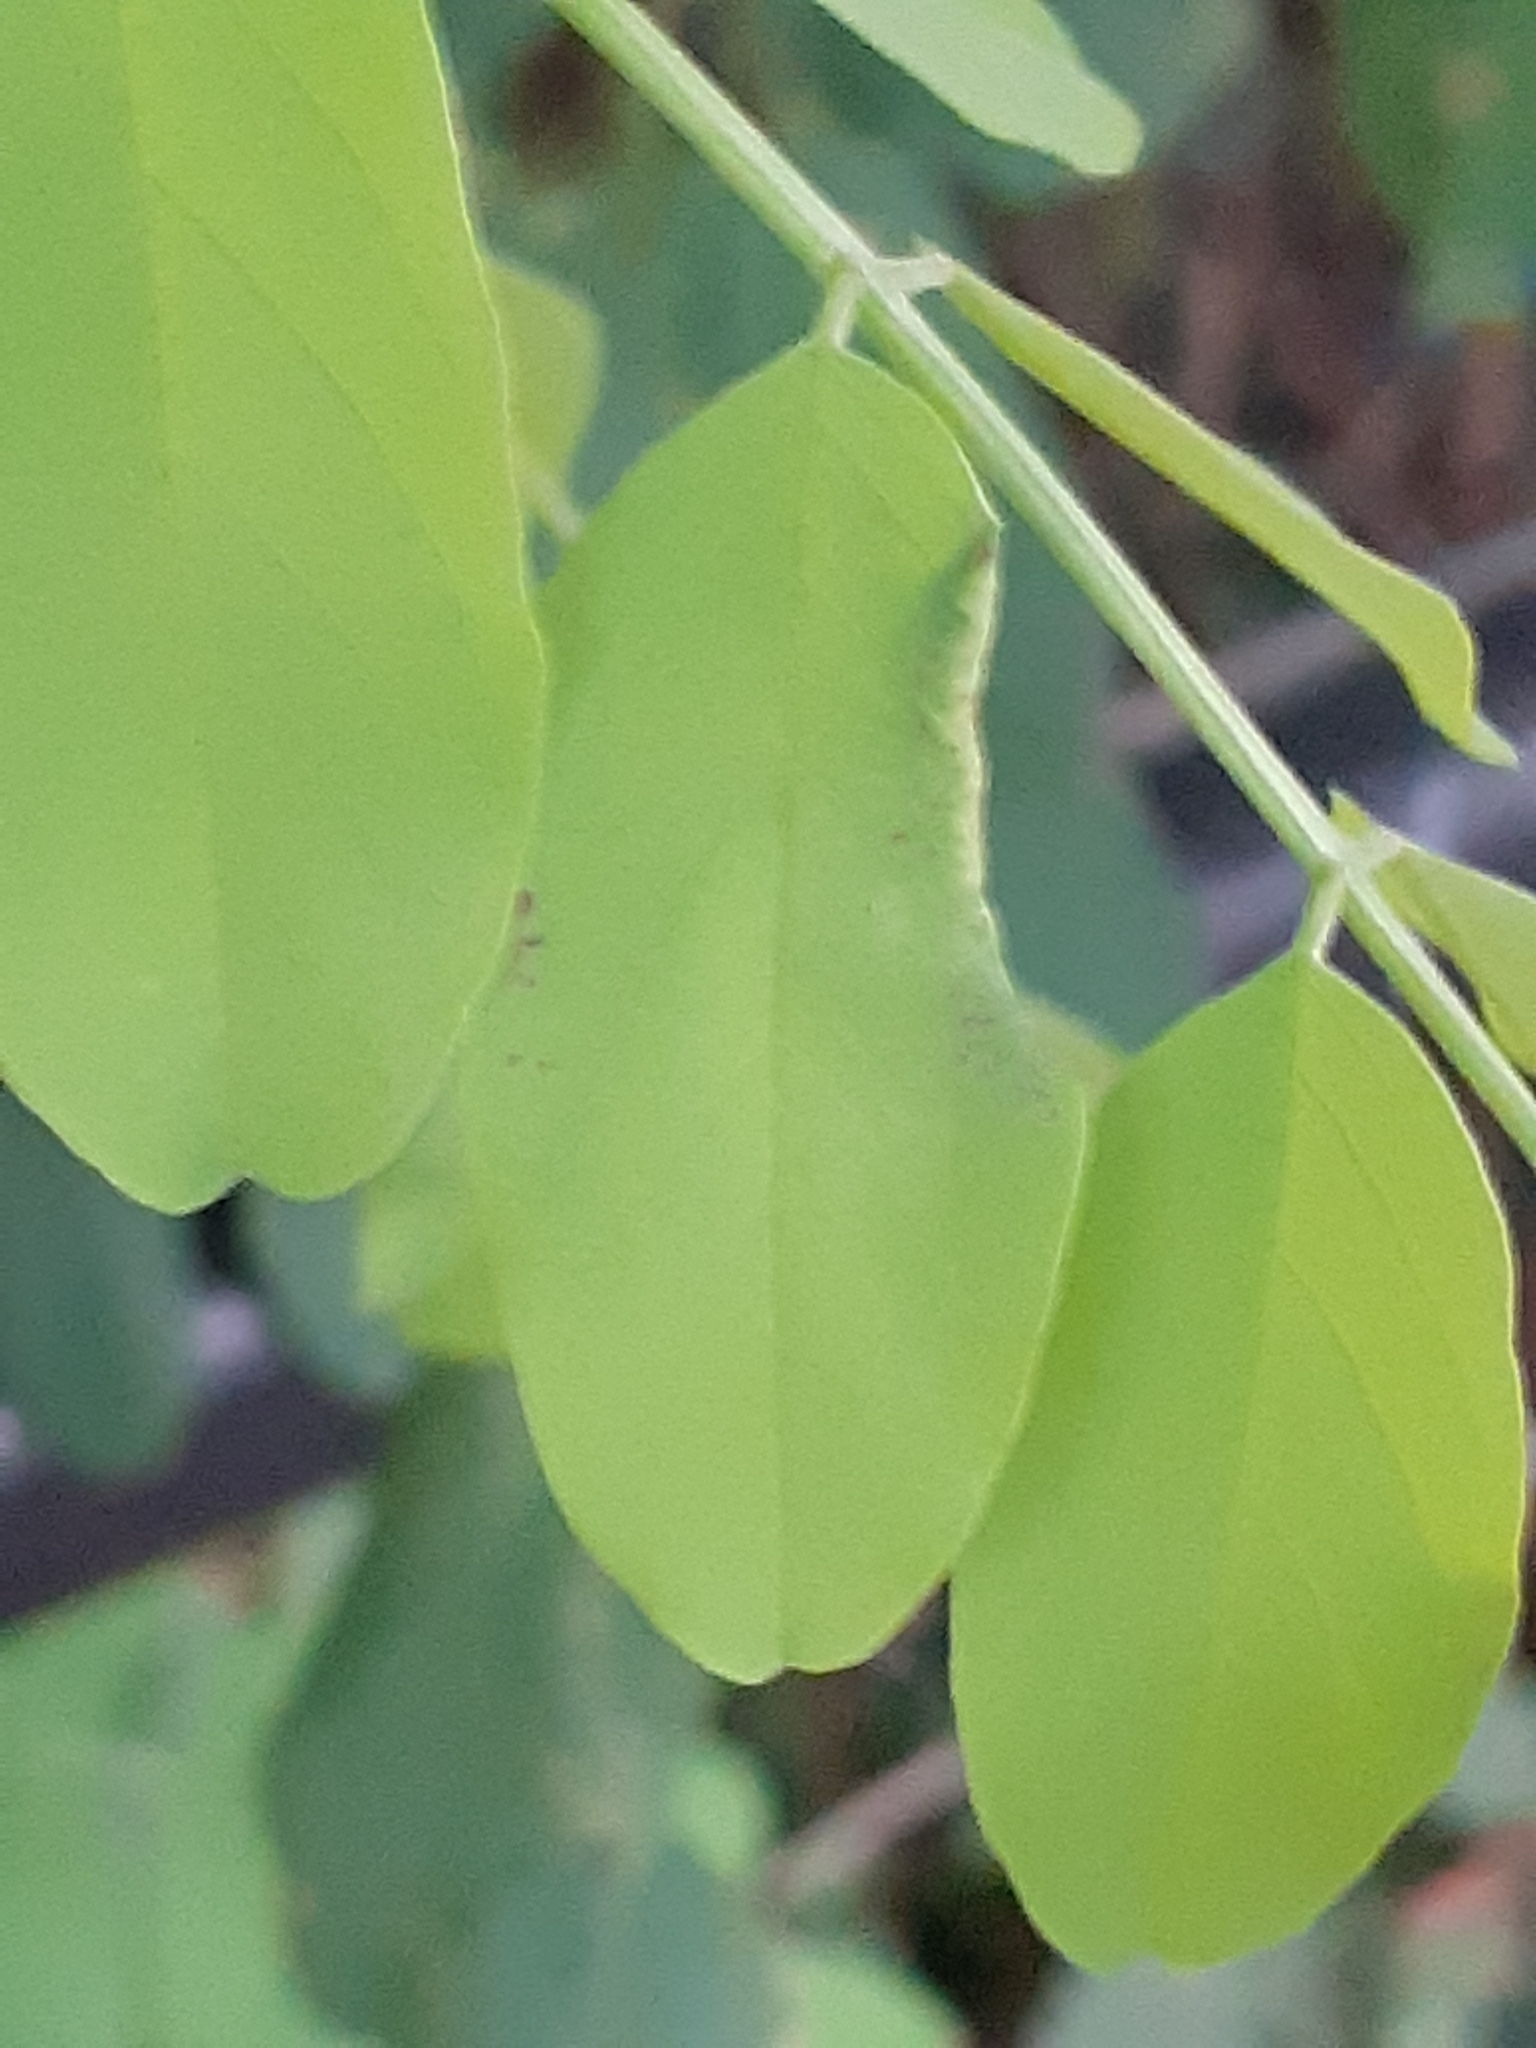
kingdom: Animalia
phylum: Arthropoda
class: Insecta
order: Diptera
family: Cecidomyiidae
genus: Obolodiplosis
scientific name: Obolodiplosis robiniae
